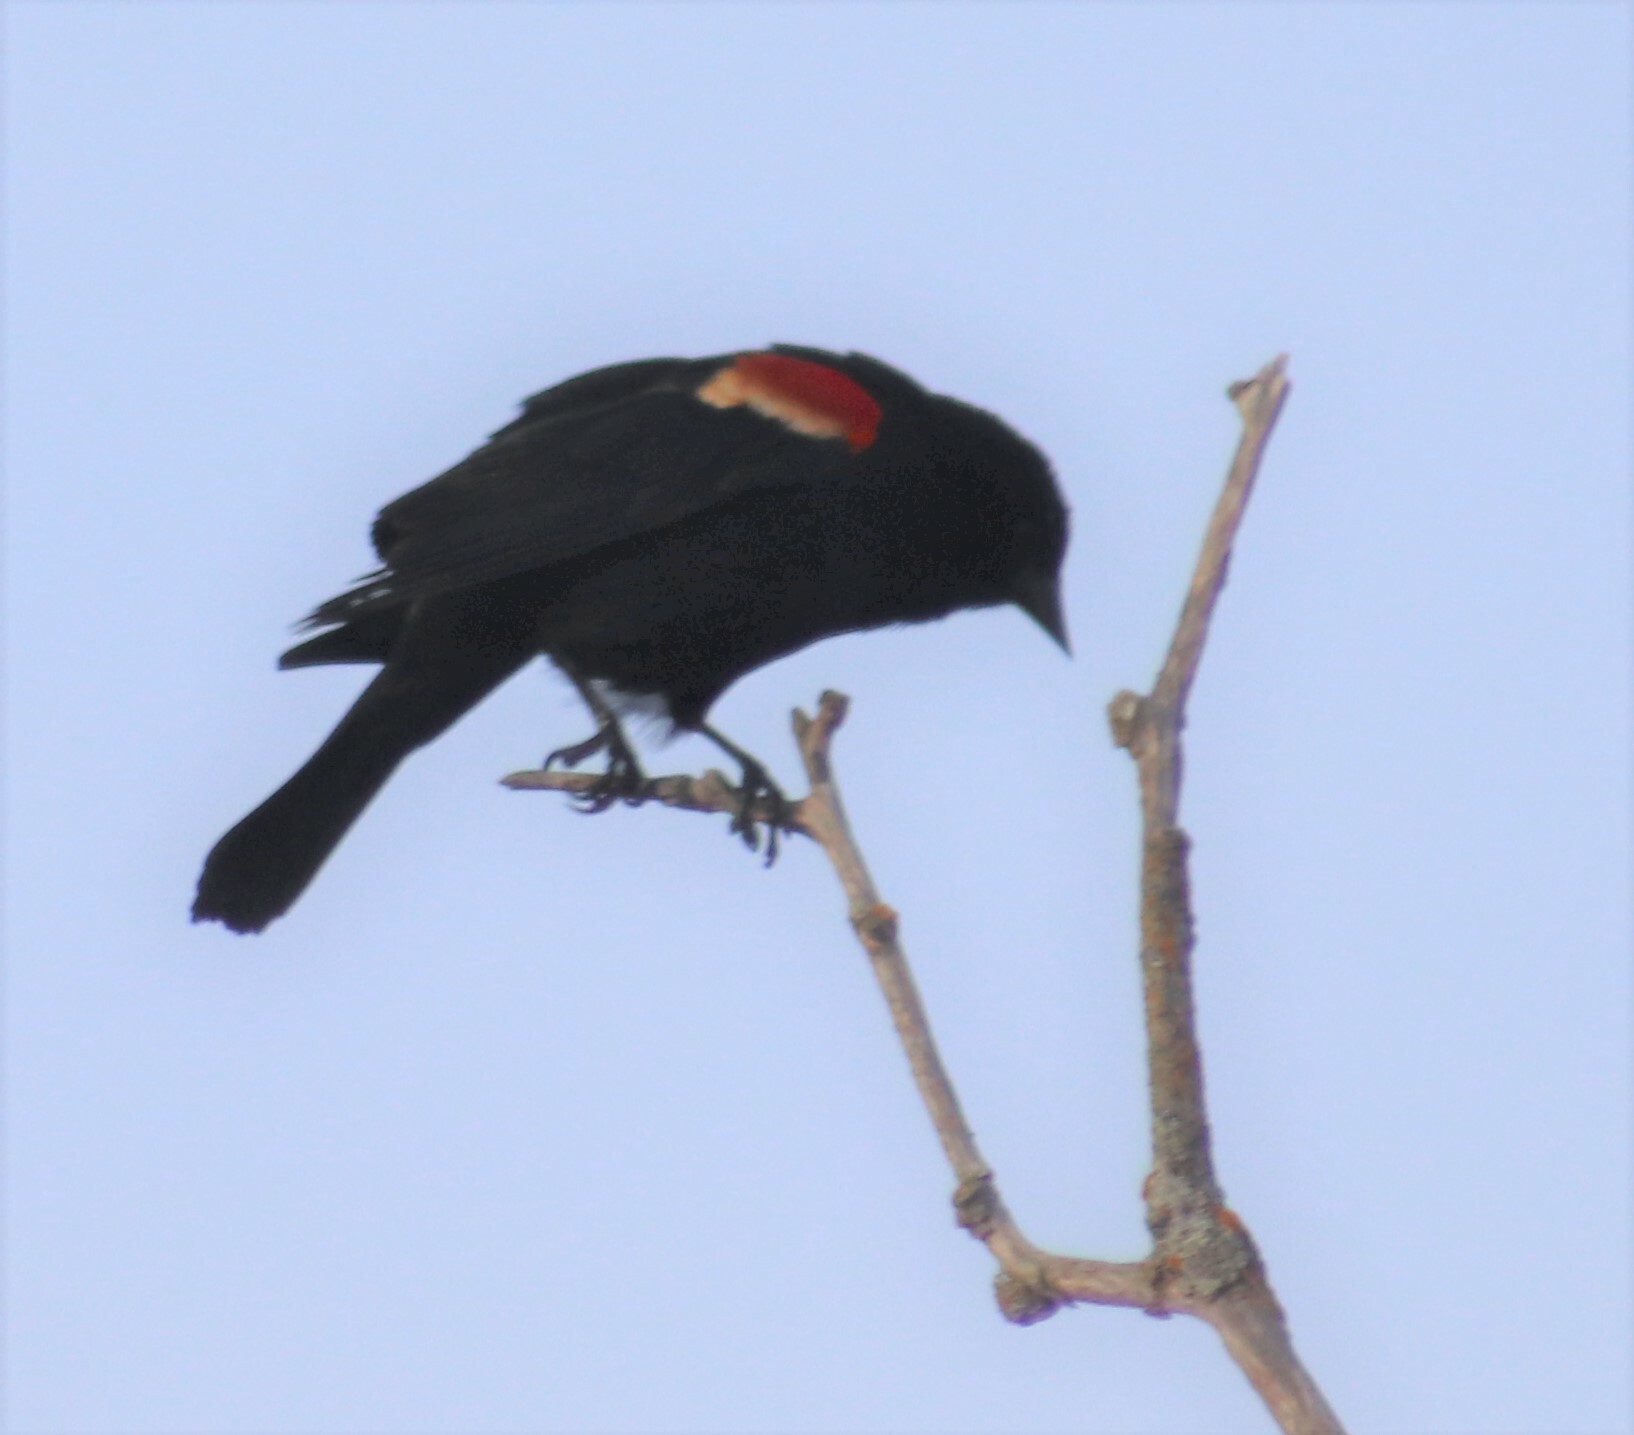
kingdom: Animalia
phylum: Chordata
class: Aves
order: Passeriformes
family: Icteridae
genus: Agelaius
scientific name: Agelaius phoeniceus
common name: Red-winged blackbird
